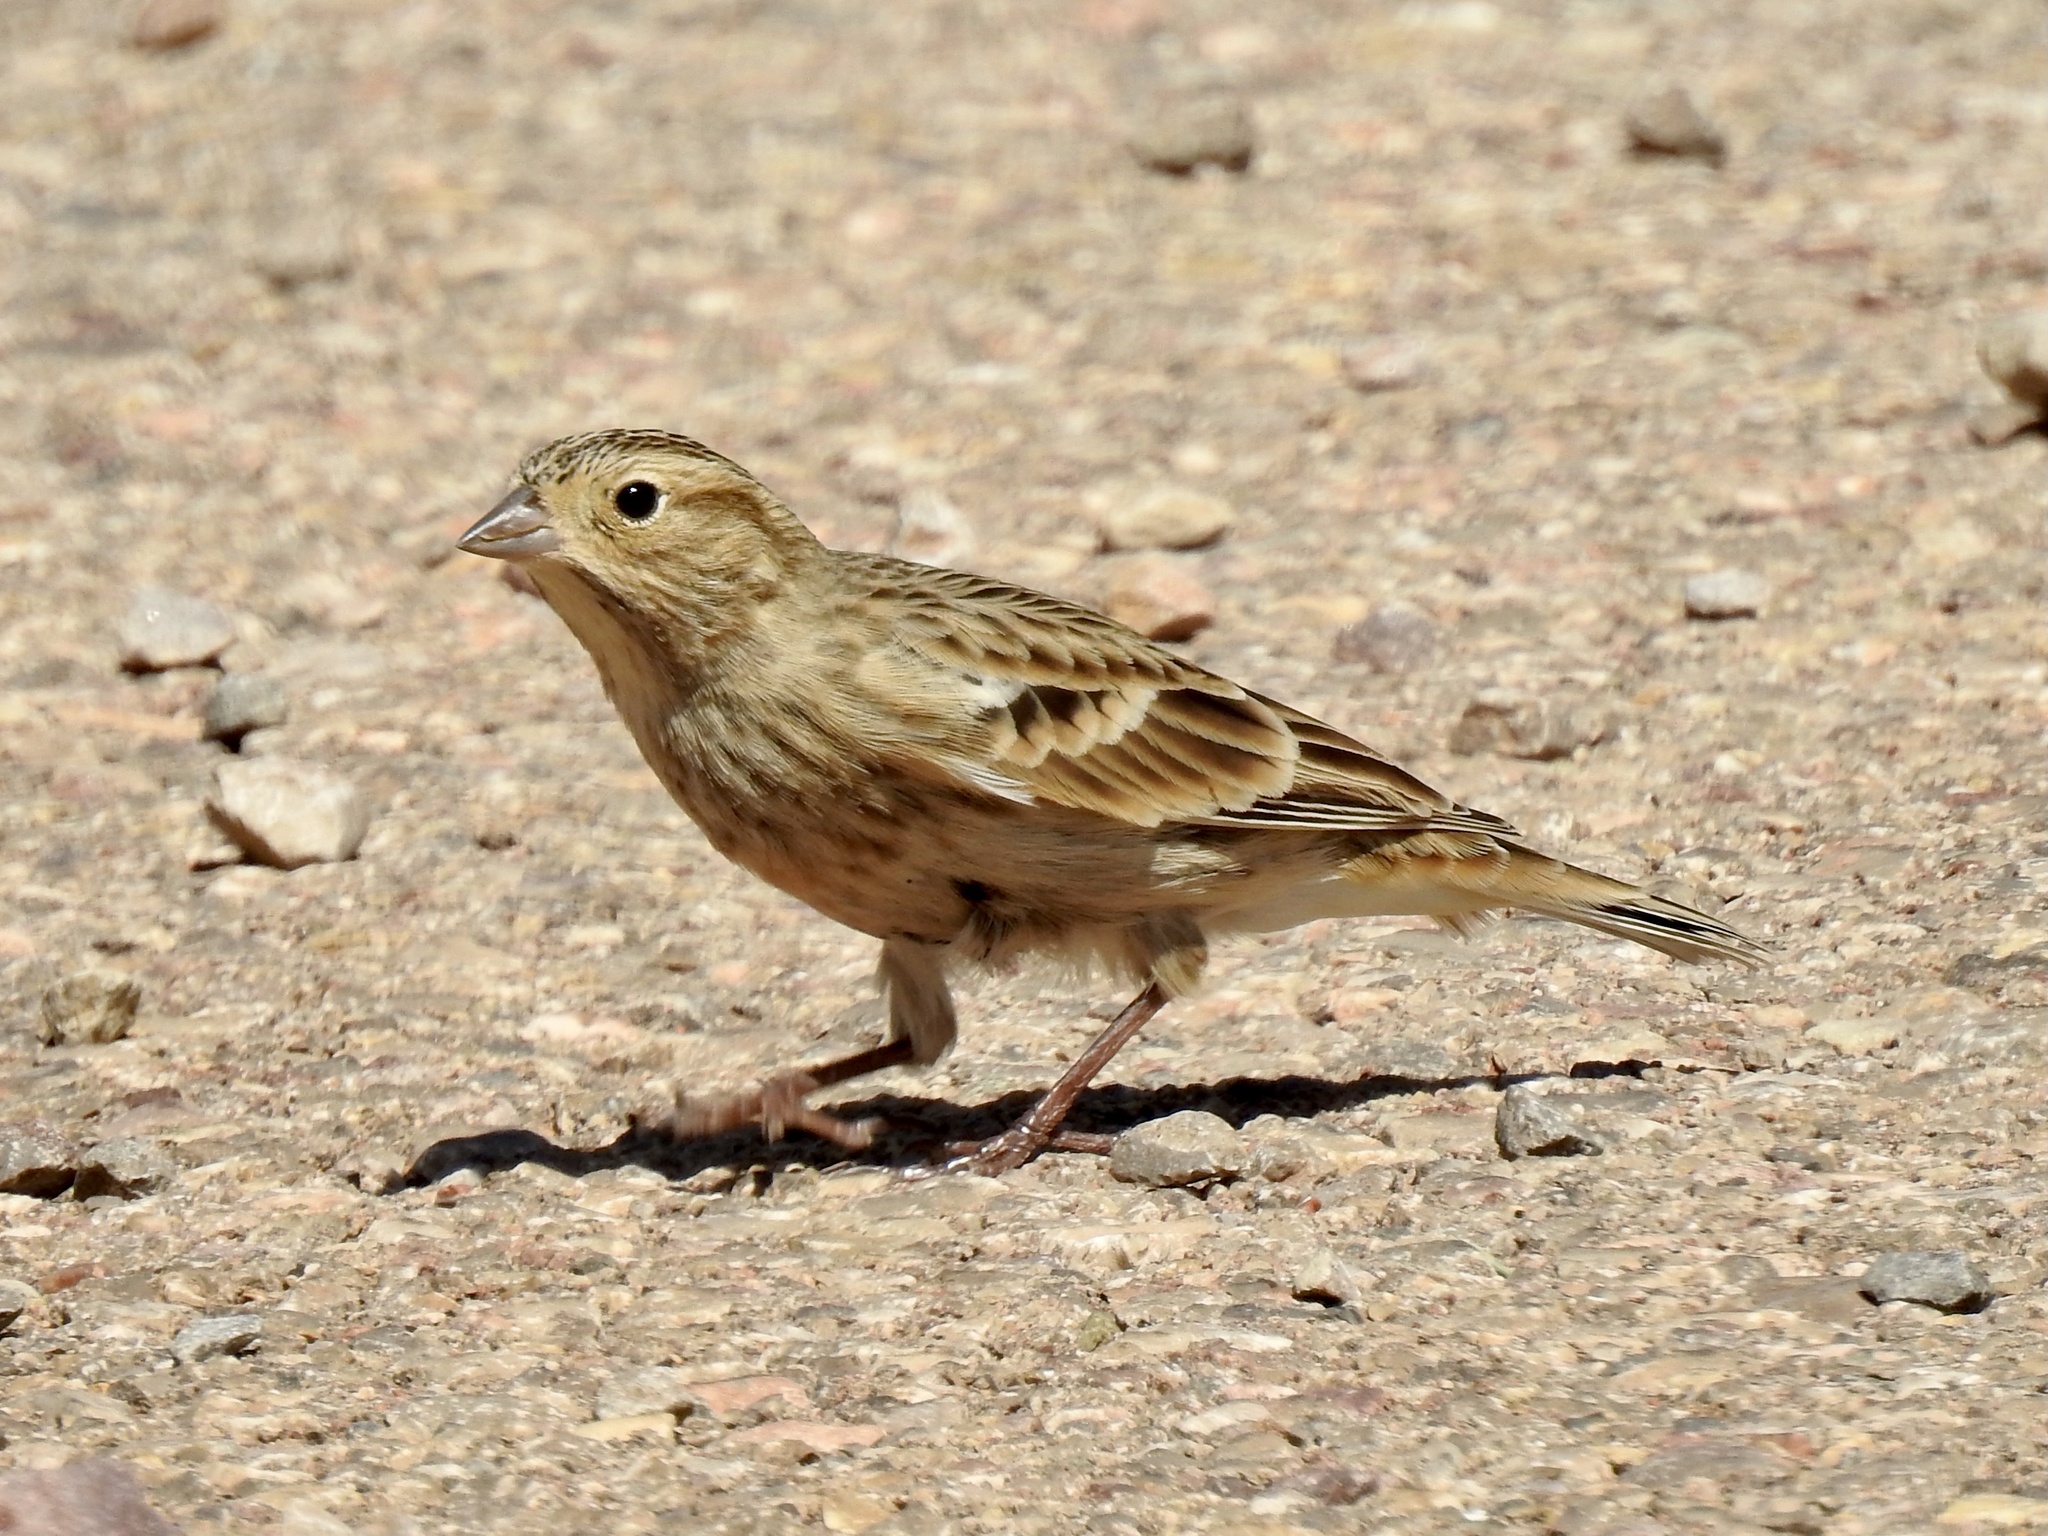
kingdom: Animalia
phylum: Chordata
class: Aves
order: Passeriformes
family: Calcariidae
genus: Calcarius
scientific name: Calcarius ornatus
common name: Chestnut-collared longspur
